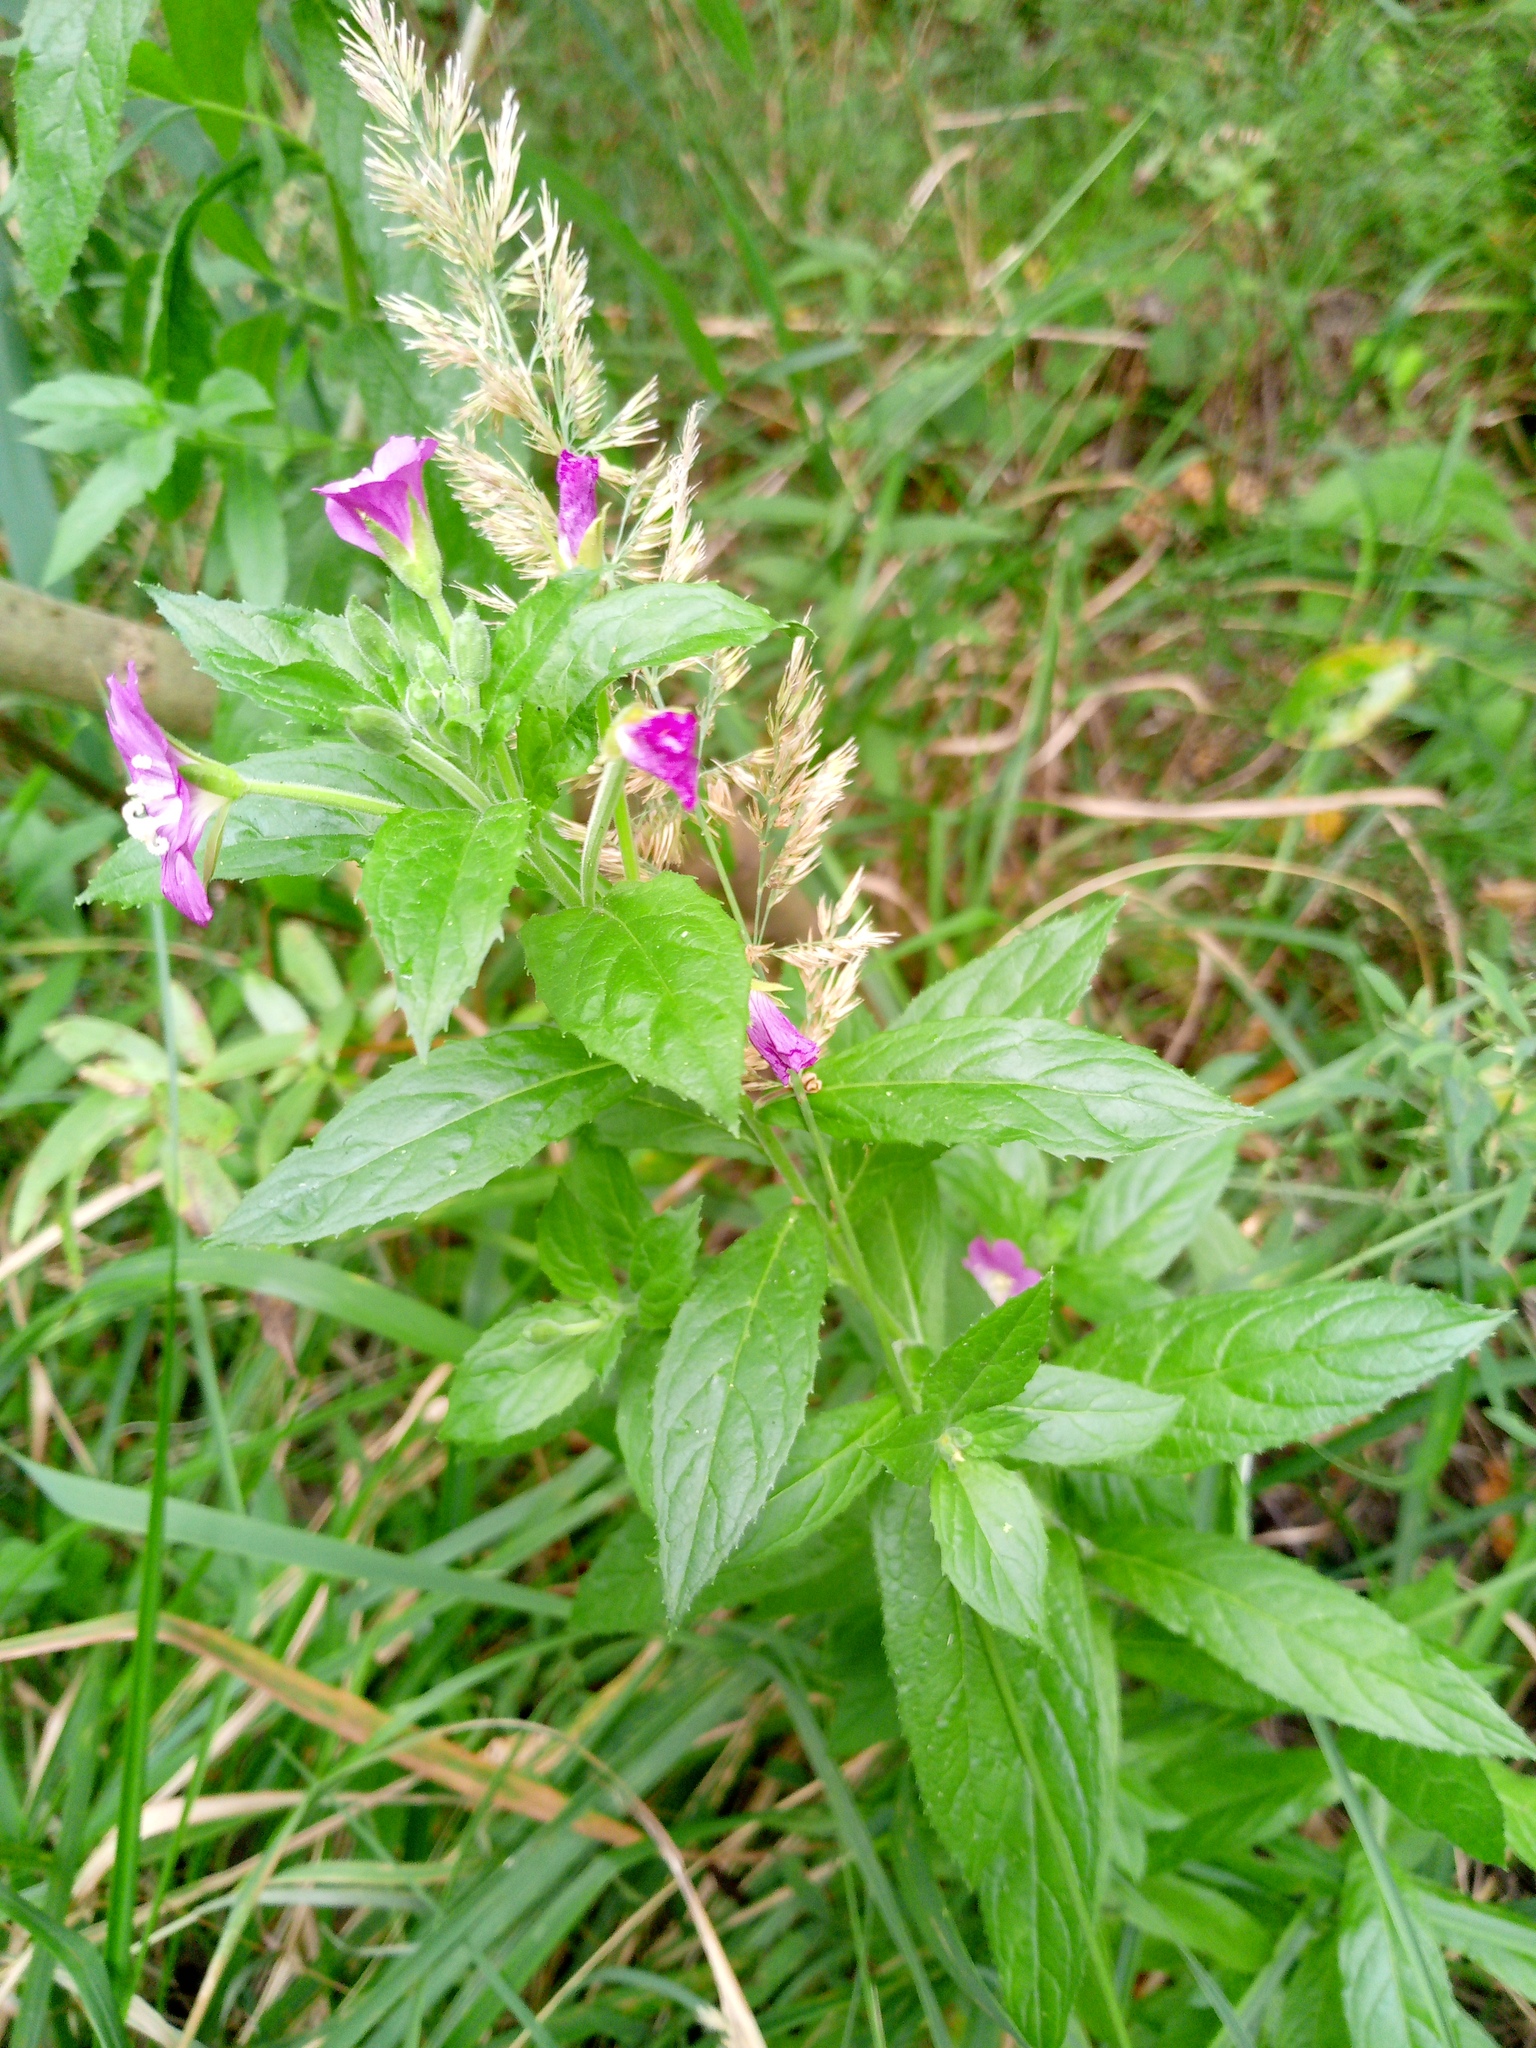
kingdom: Plantae
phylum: Tracheophyta
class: Magnoliopsida
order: Myrtales
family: Onagraceae
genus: Epilobium
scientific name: Epilobium hirsutum
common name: Great willowherb
